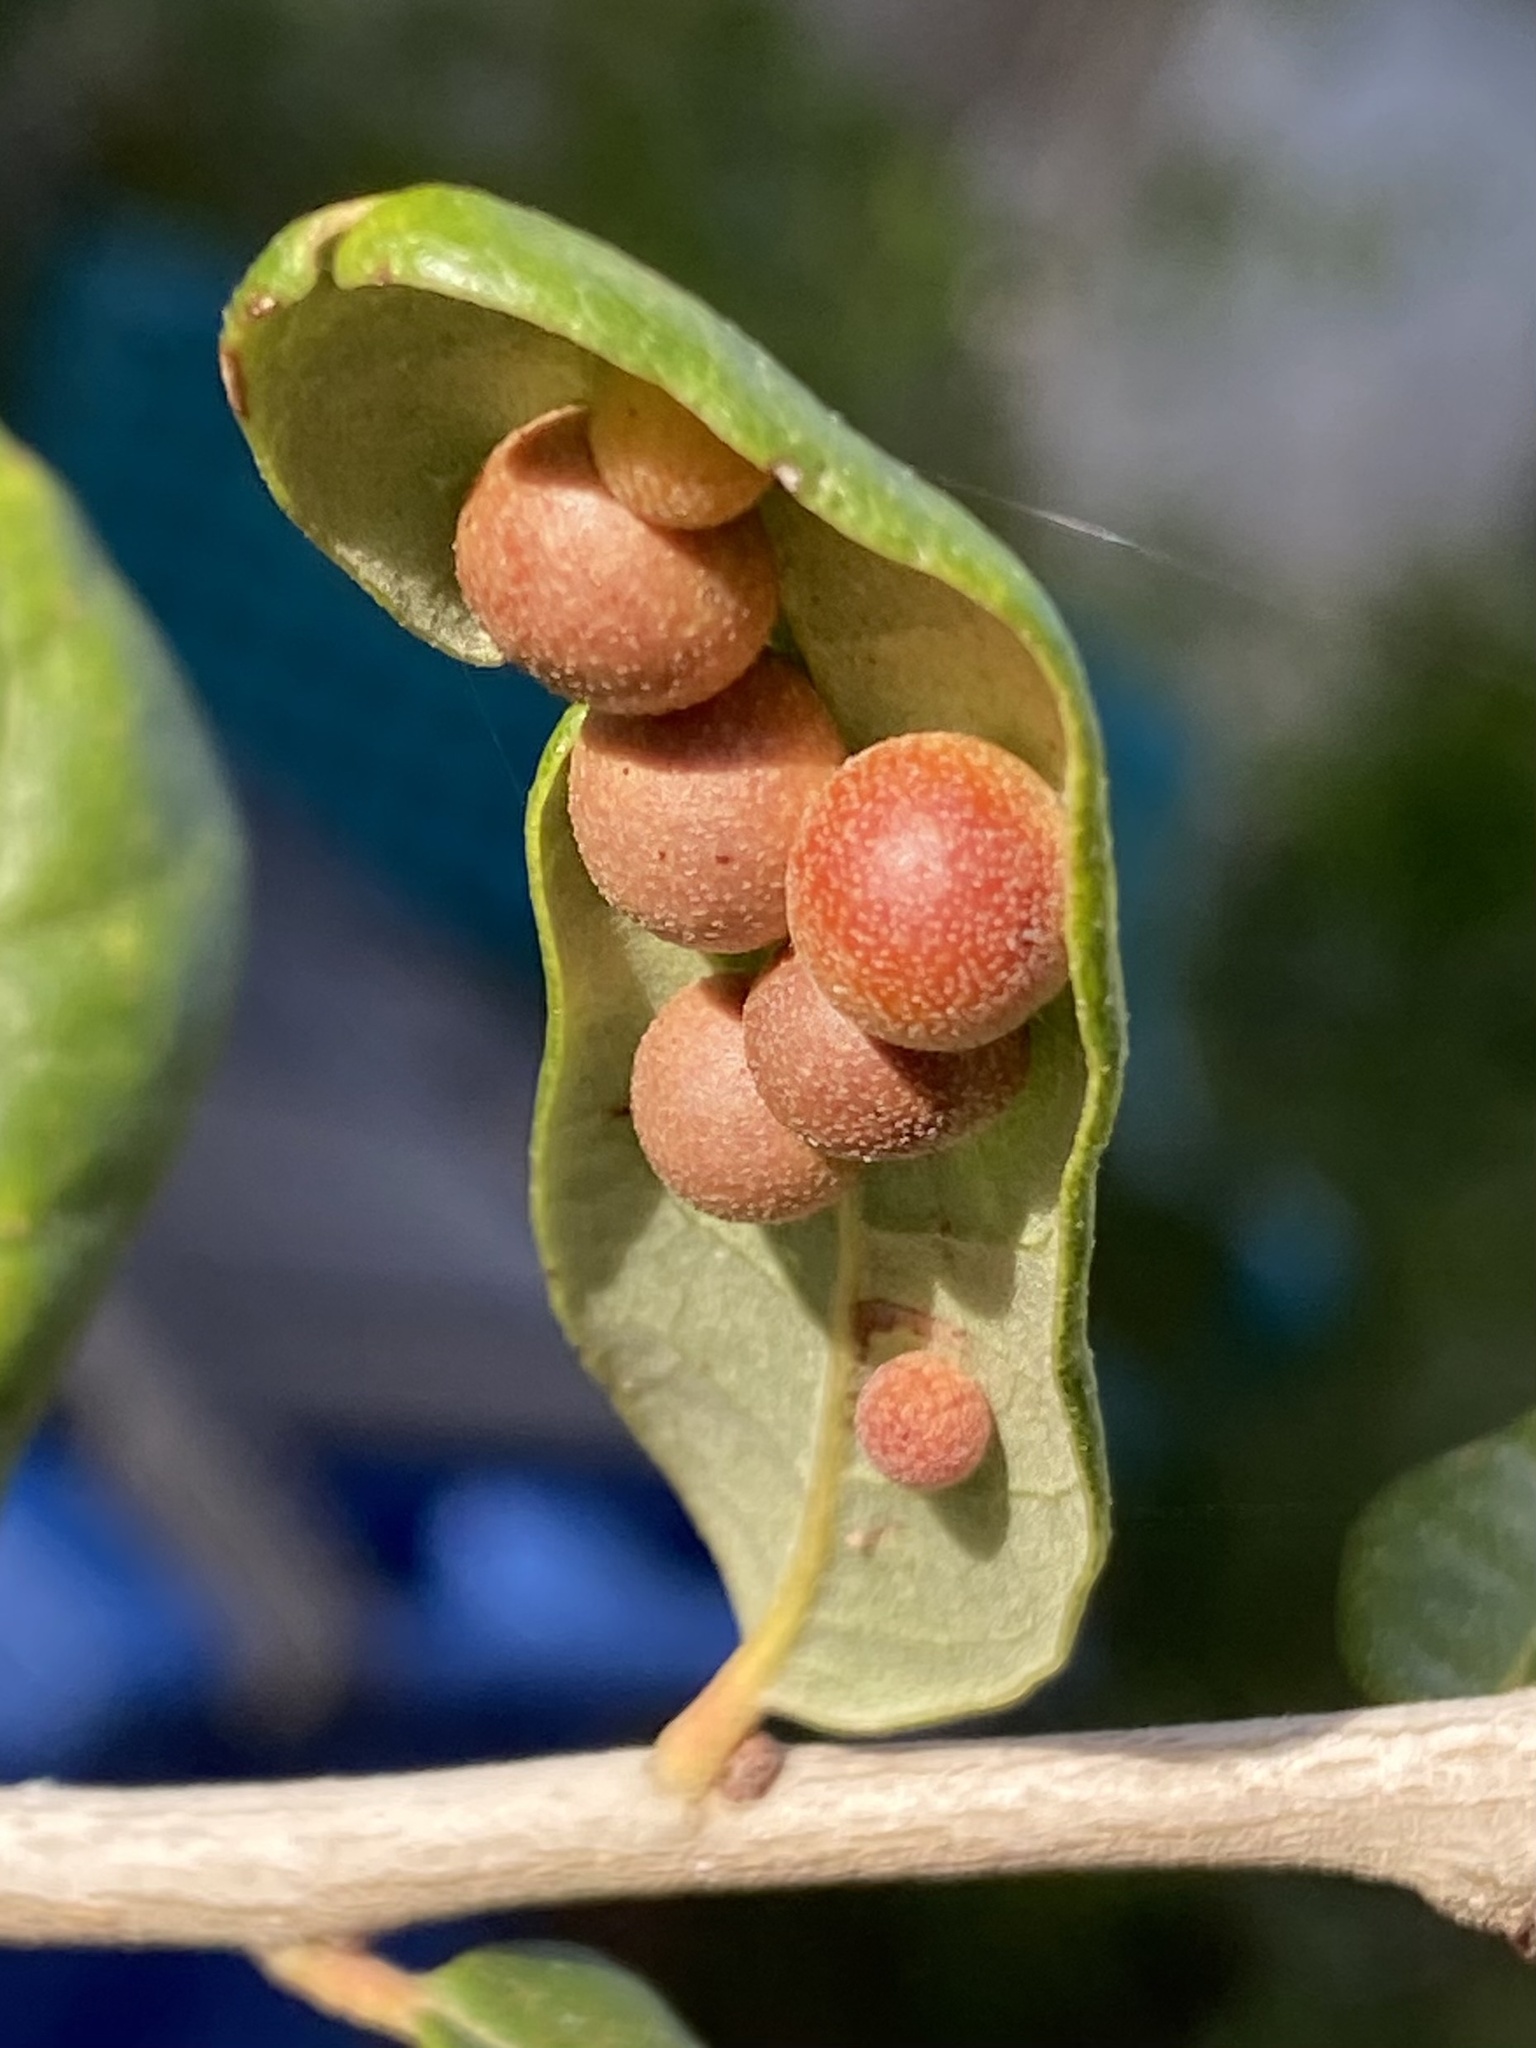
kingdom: Animalia
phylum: Arthropoda
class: Insecta
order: Hymenoptera
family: Cynipidae
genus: Belonocnema
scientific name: Belonocnema kinseyi
